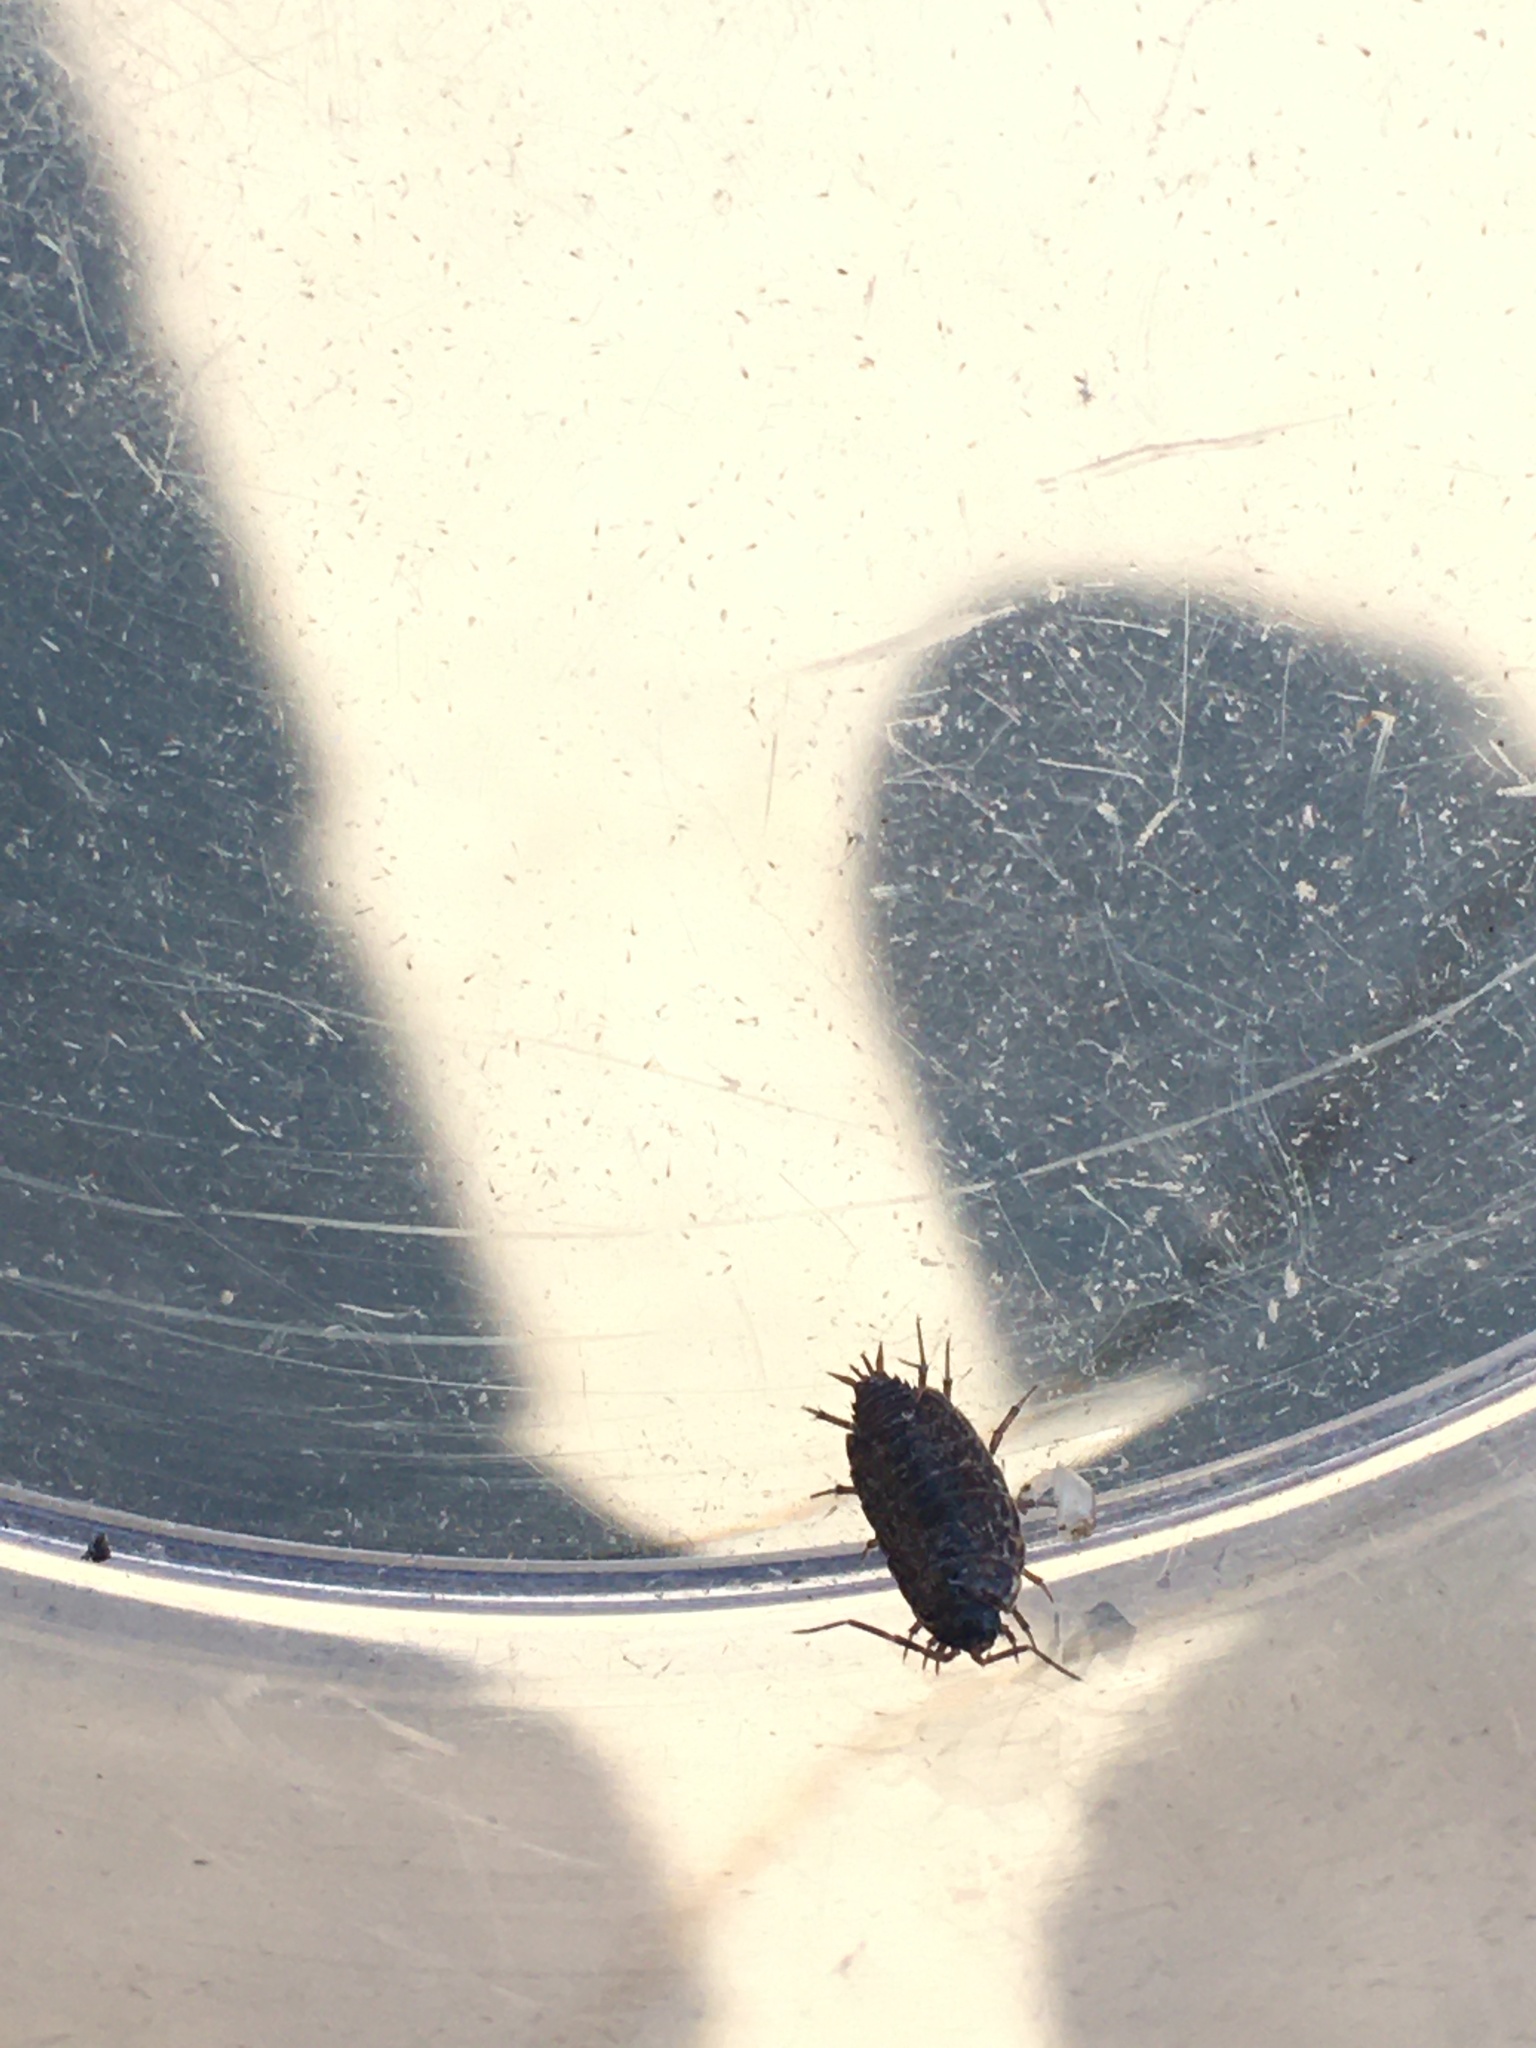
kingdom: Animalia
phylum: Arthropoda
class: Malacostraca
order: Isopoda
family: Philosciidae
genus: Philoscia
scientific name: Philoscia muscorum
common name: Common striped woodlouse
